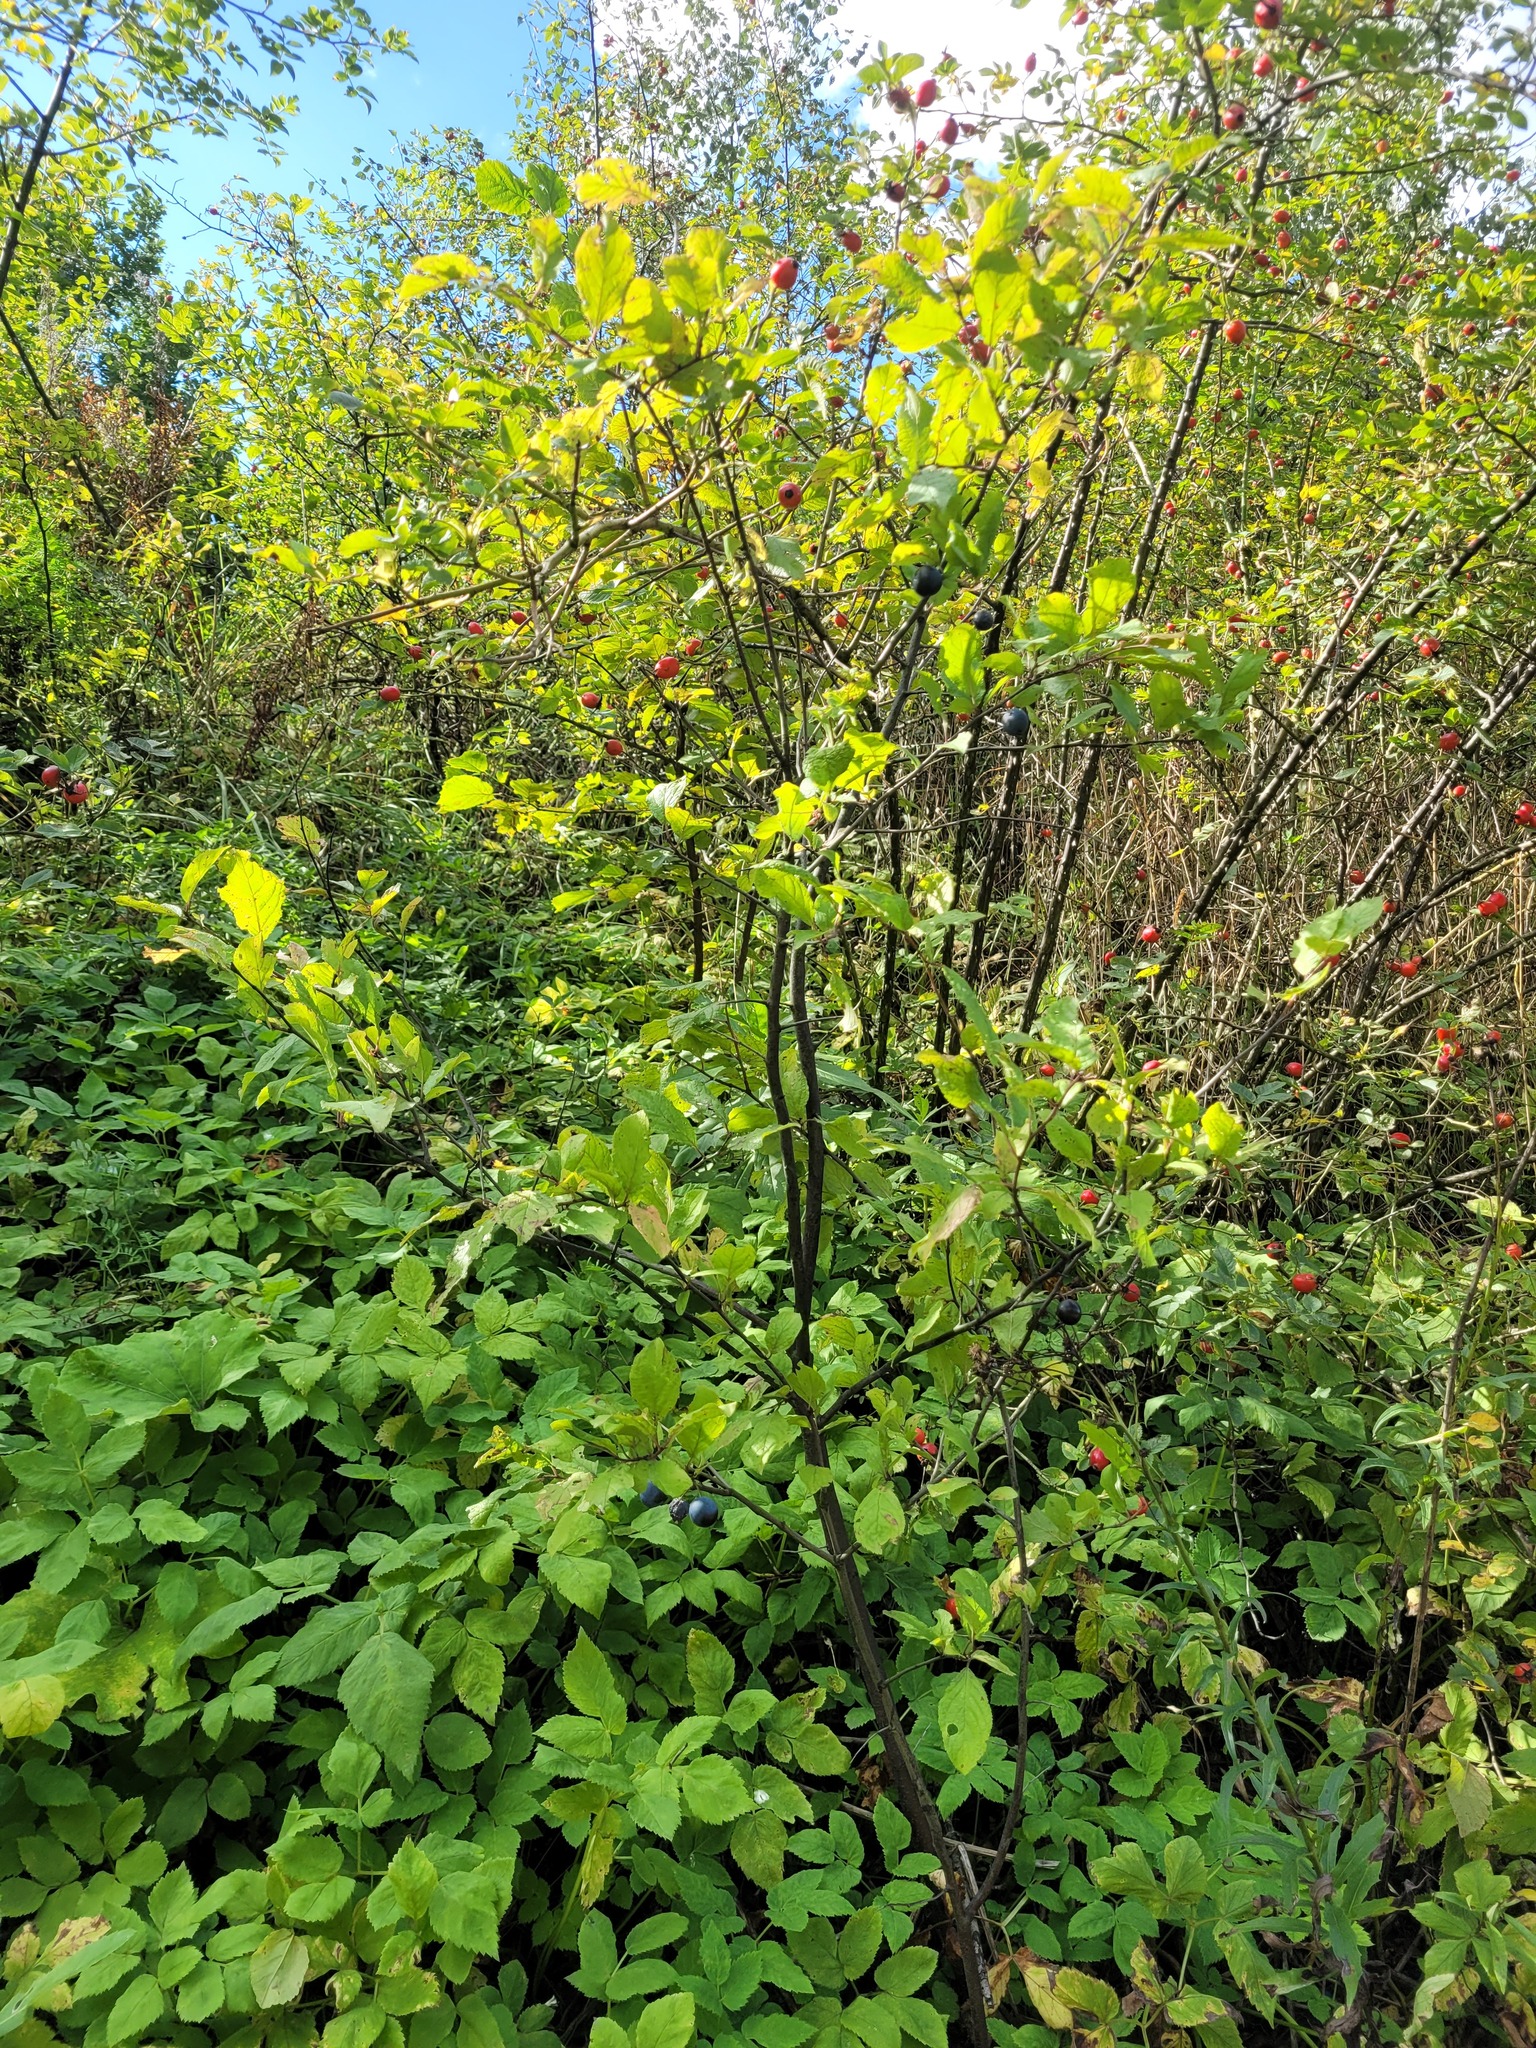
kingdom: Plantae
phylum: Tracheophyta
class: Magnoliopsida
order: Rosales
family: Rosaceae
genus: Prunus
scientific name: Prunus spinosa
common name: Blackthorn
